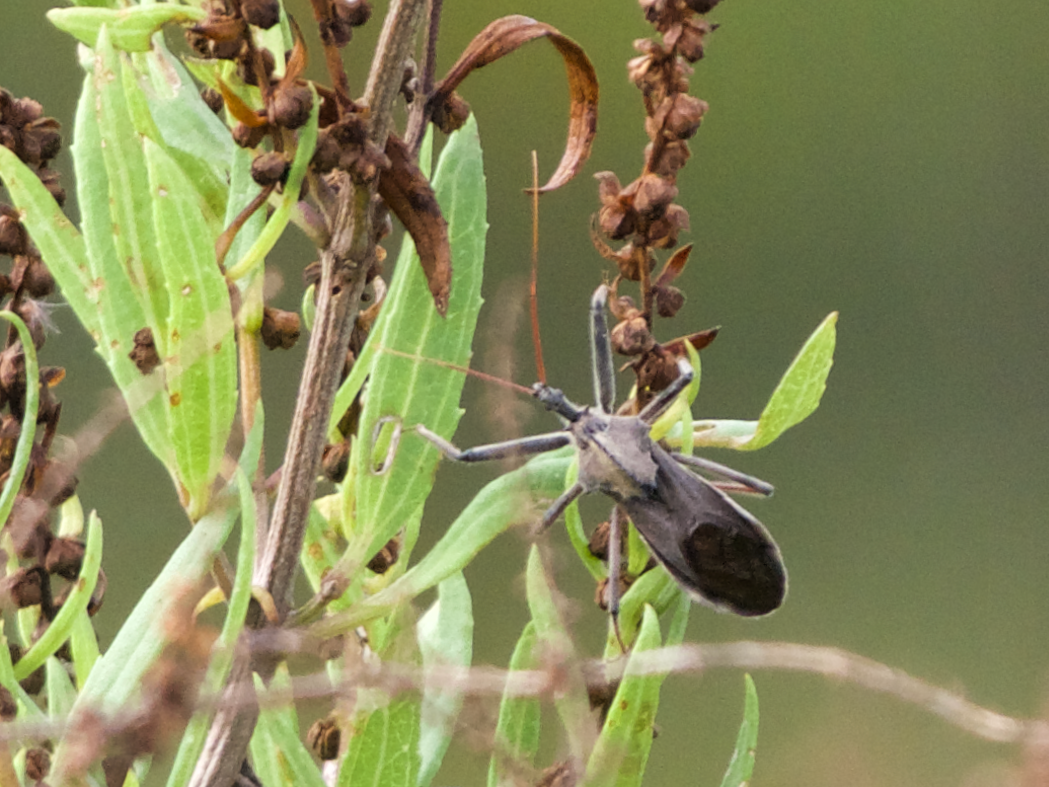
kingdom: Animalia
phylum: Arthropoda
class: Insecta
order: Hemiptera
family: Reduviidae
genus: Arilus
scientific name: Arilus cristatus
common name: North american wheel bug
